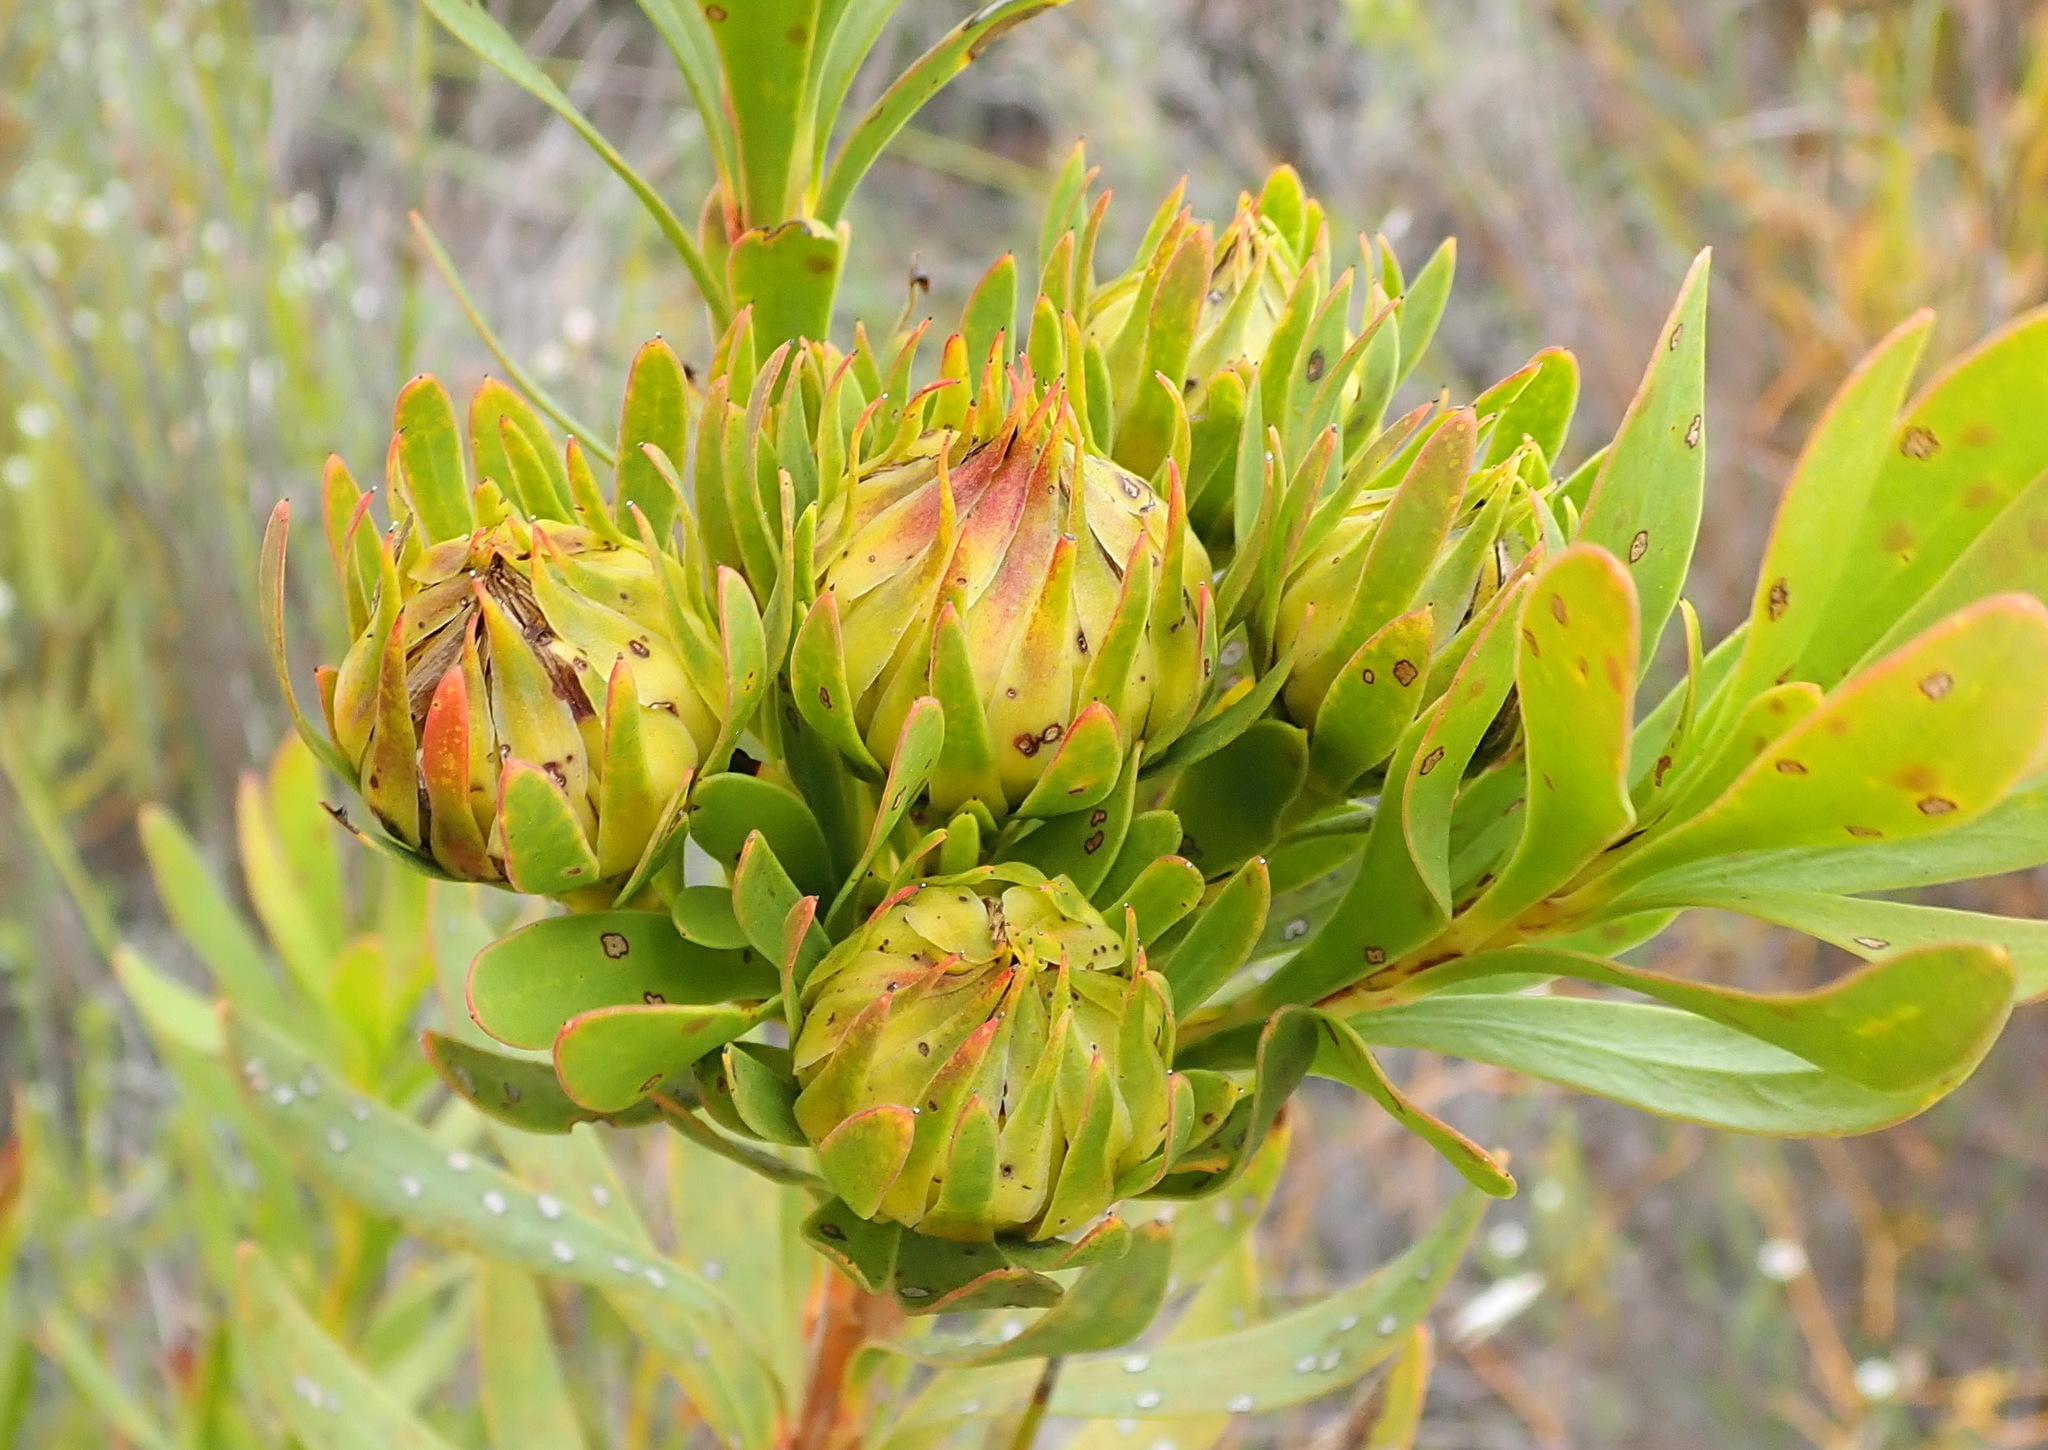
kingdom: Plantae
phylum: Tracheophyta
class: Magnoliopsida
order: Proteales
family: Proteaceae
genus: Aulax
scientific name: Aulax umbellata
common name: Broad-leaf featherbush
